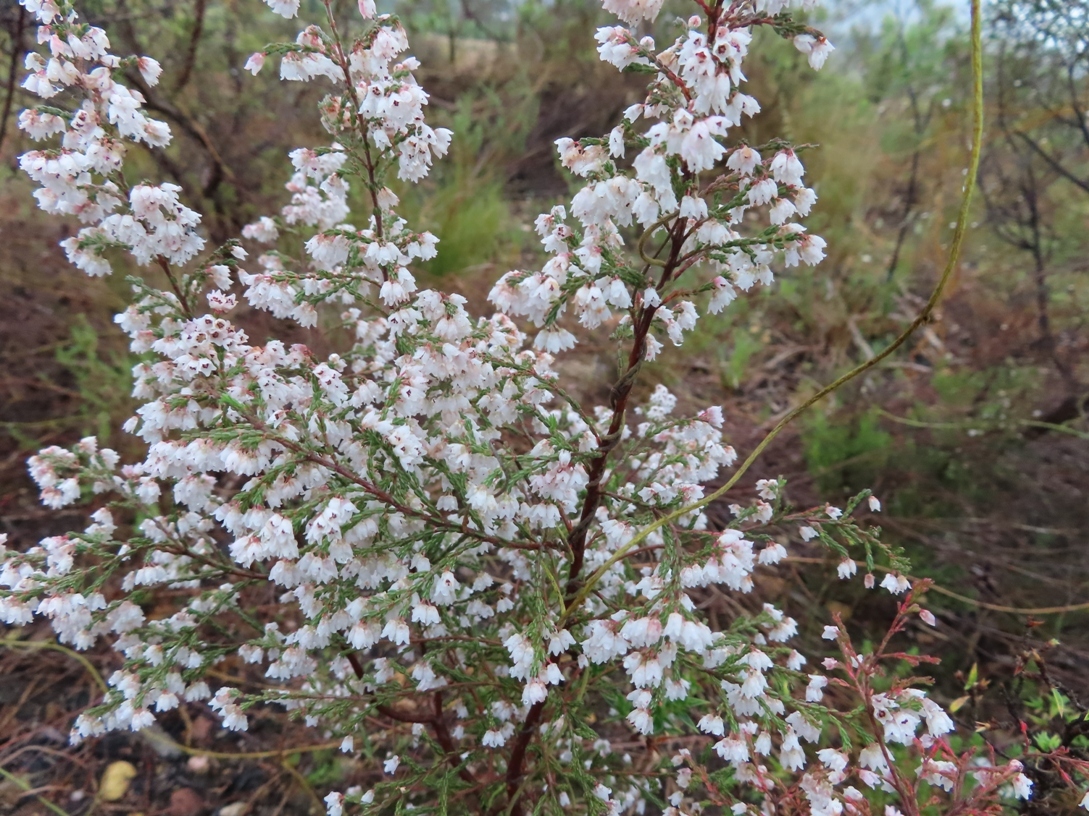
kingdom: Plantae
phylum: Tracheophyta
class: Magnoliopsida
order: Ericales
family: Ericaceae
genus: Erica
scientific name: Erica quadrangularis
